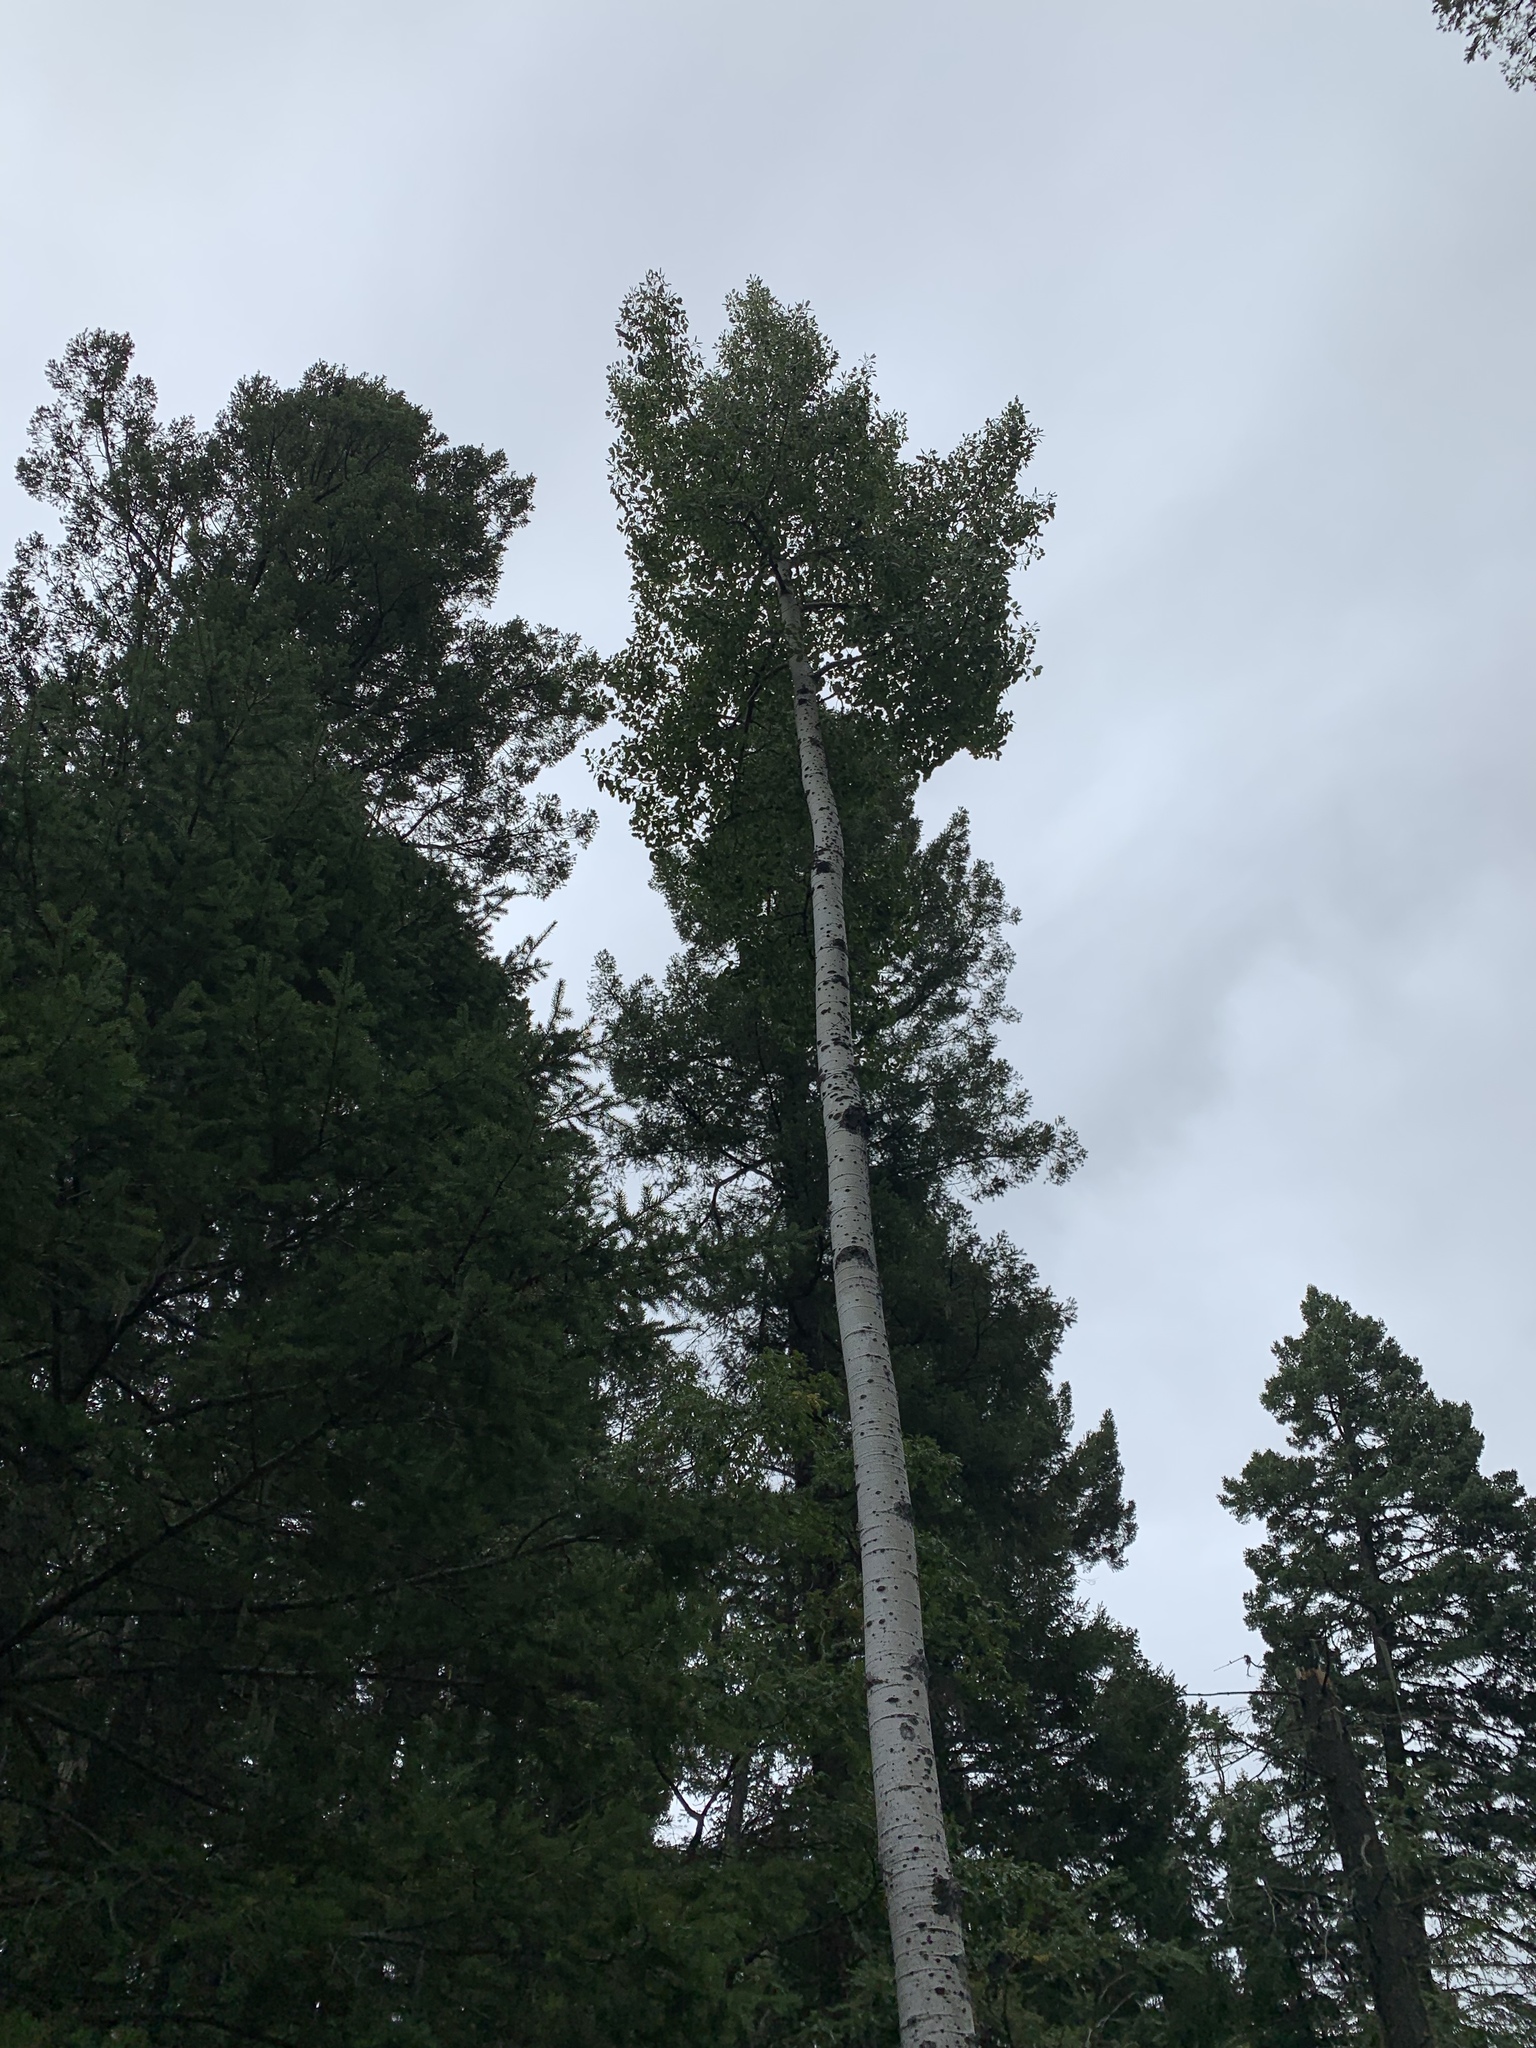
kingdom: Plantae
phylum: Tracheophyta
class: Magnoliopsida
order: Malpighiales
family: Salicaceae
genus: Populus
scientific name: Populus tremuloides
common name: Quaking aspen
